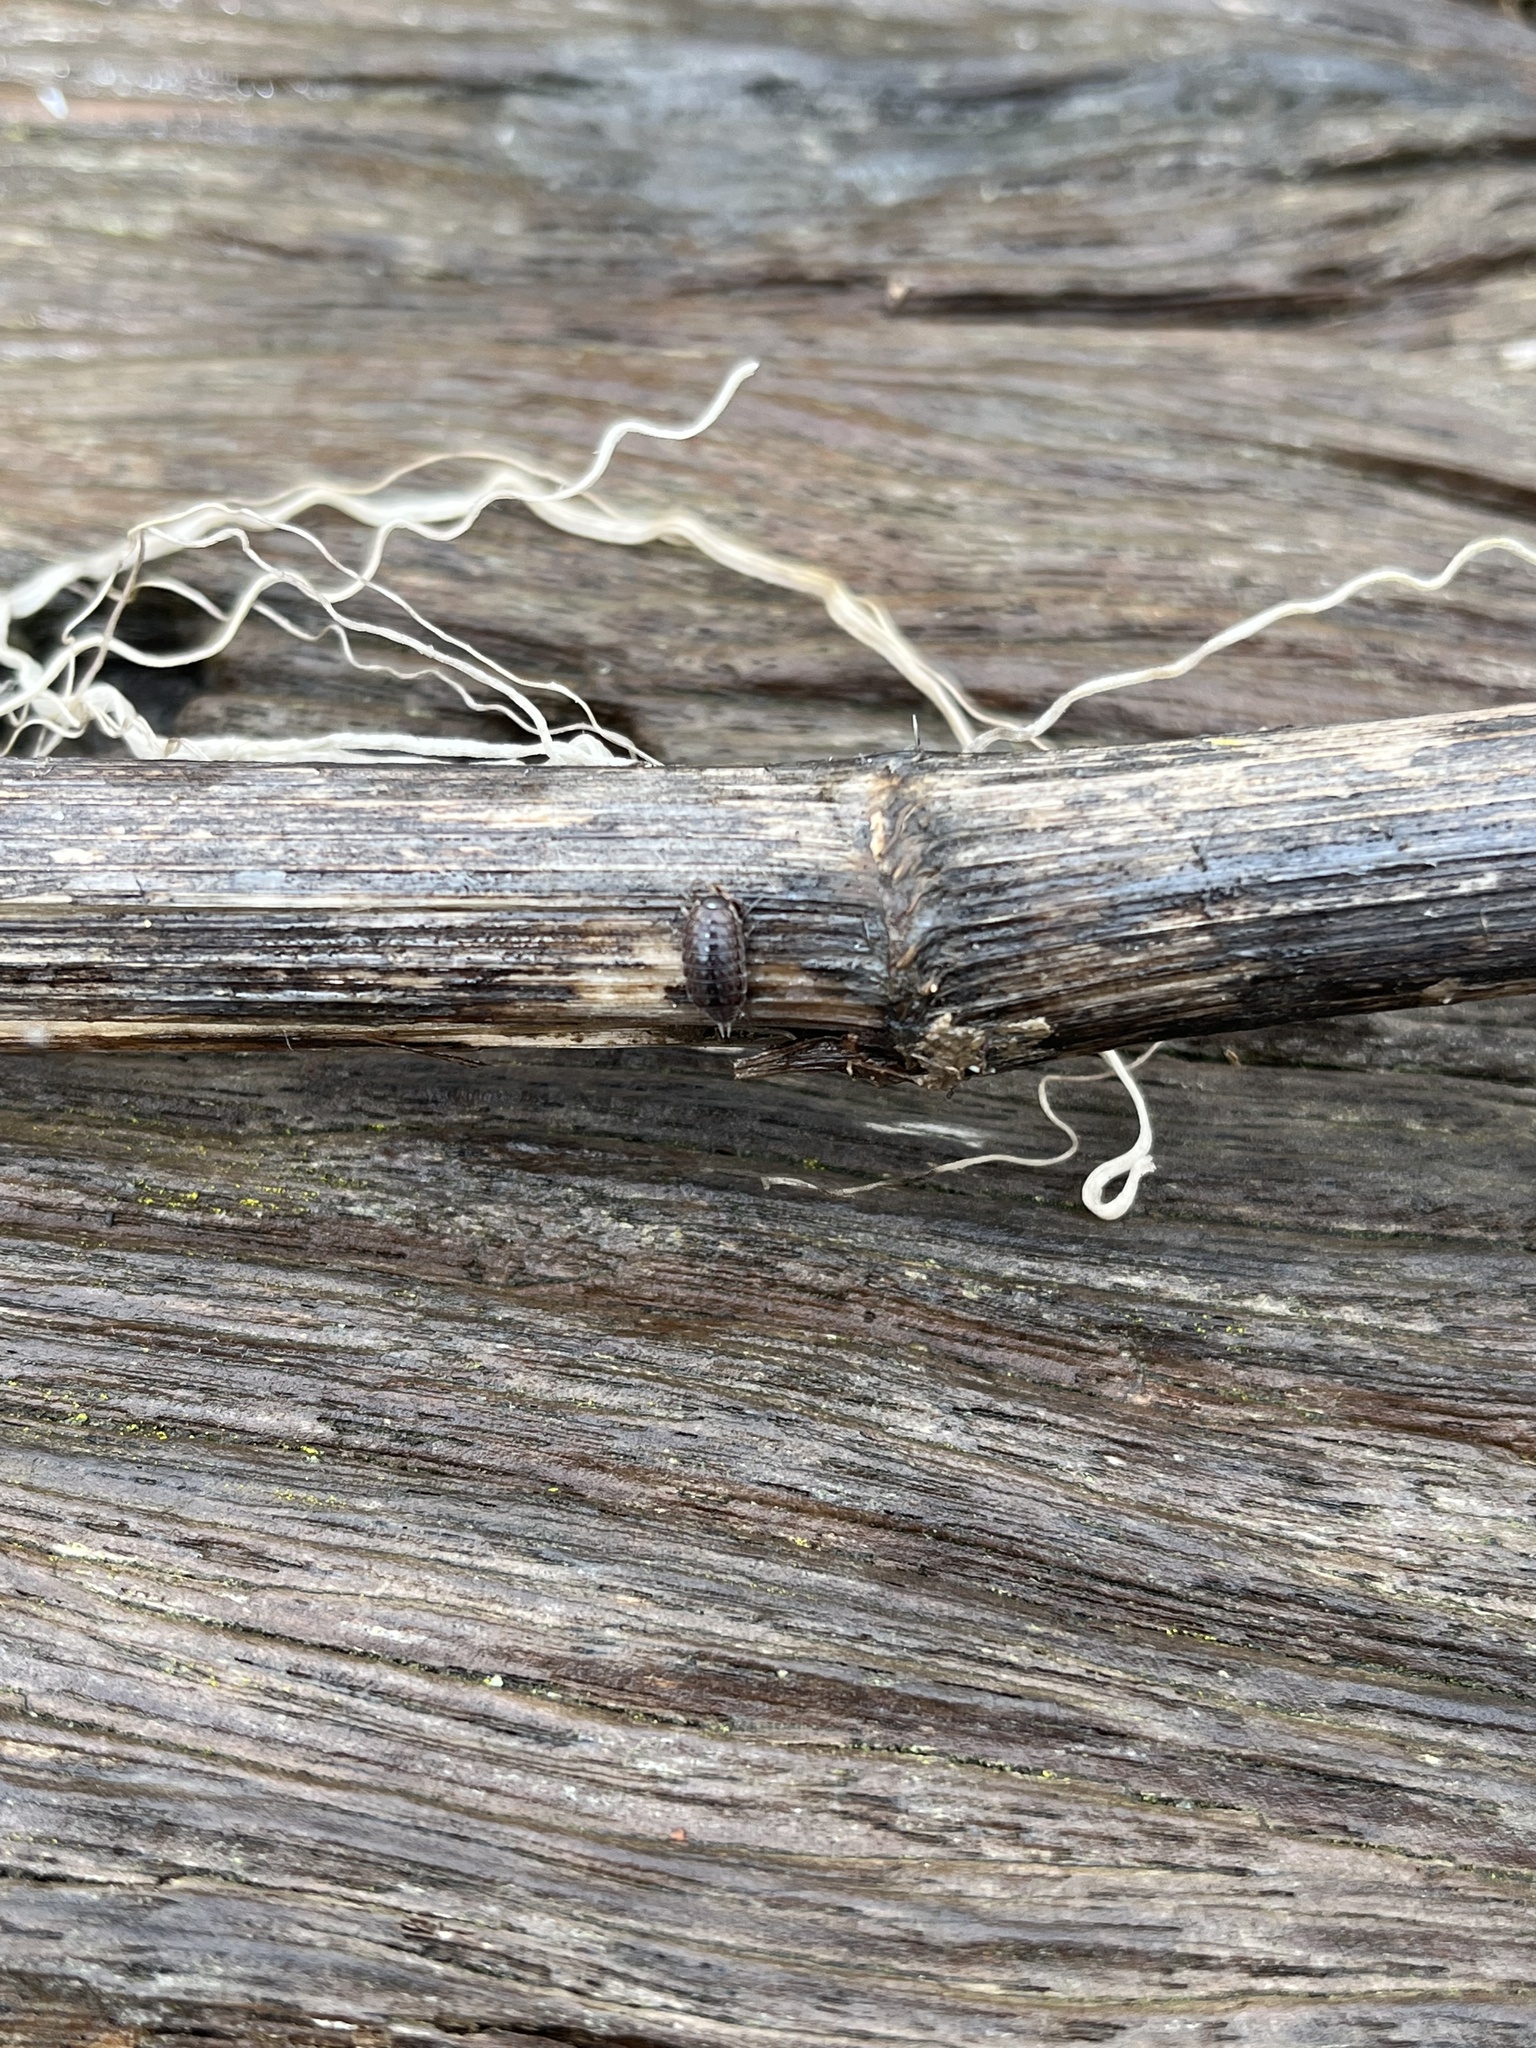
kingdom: Animalia
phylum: Arthropoda
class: Malacostraca
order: Isopoda
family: Philosciidae
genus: Philoscia
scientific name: Philoscia muscorum
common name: Common striped woodlouse
